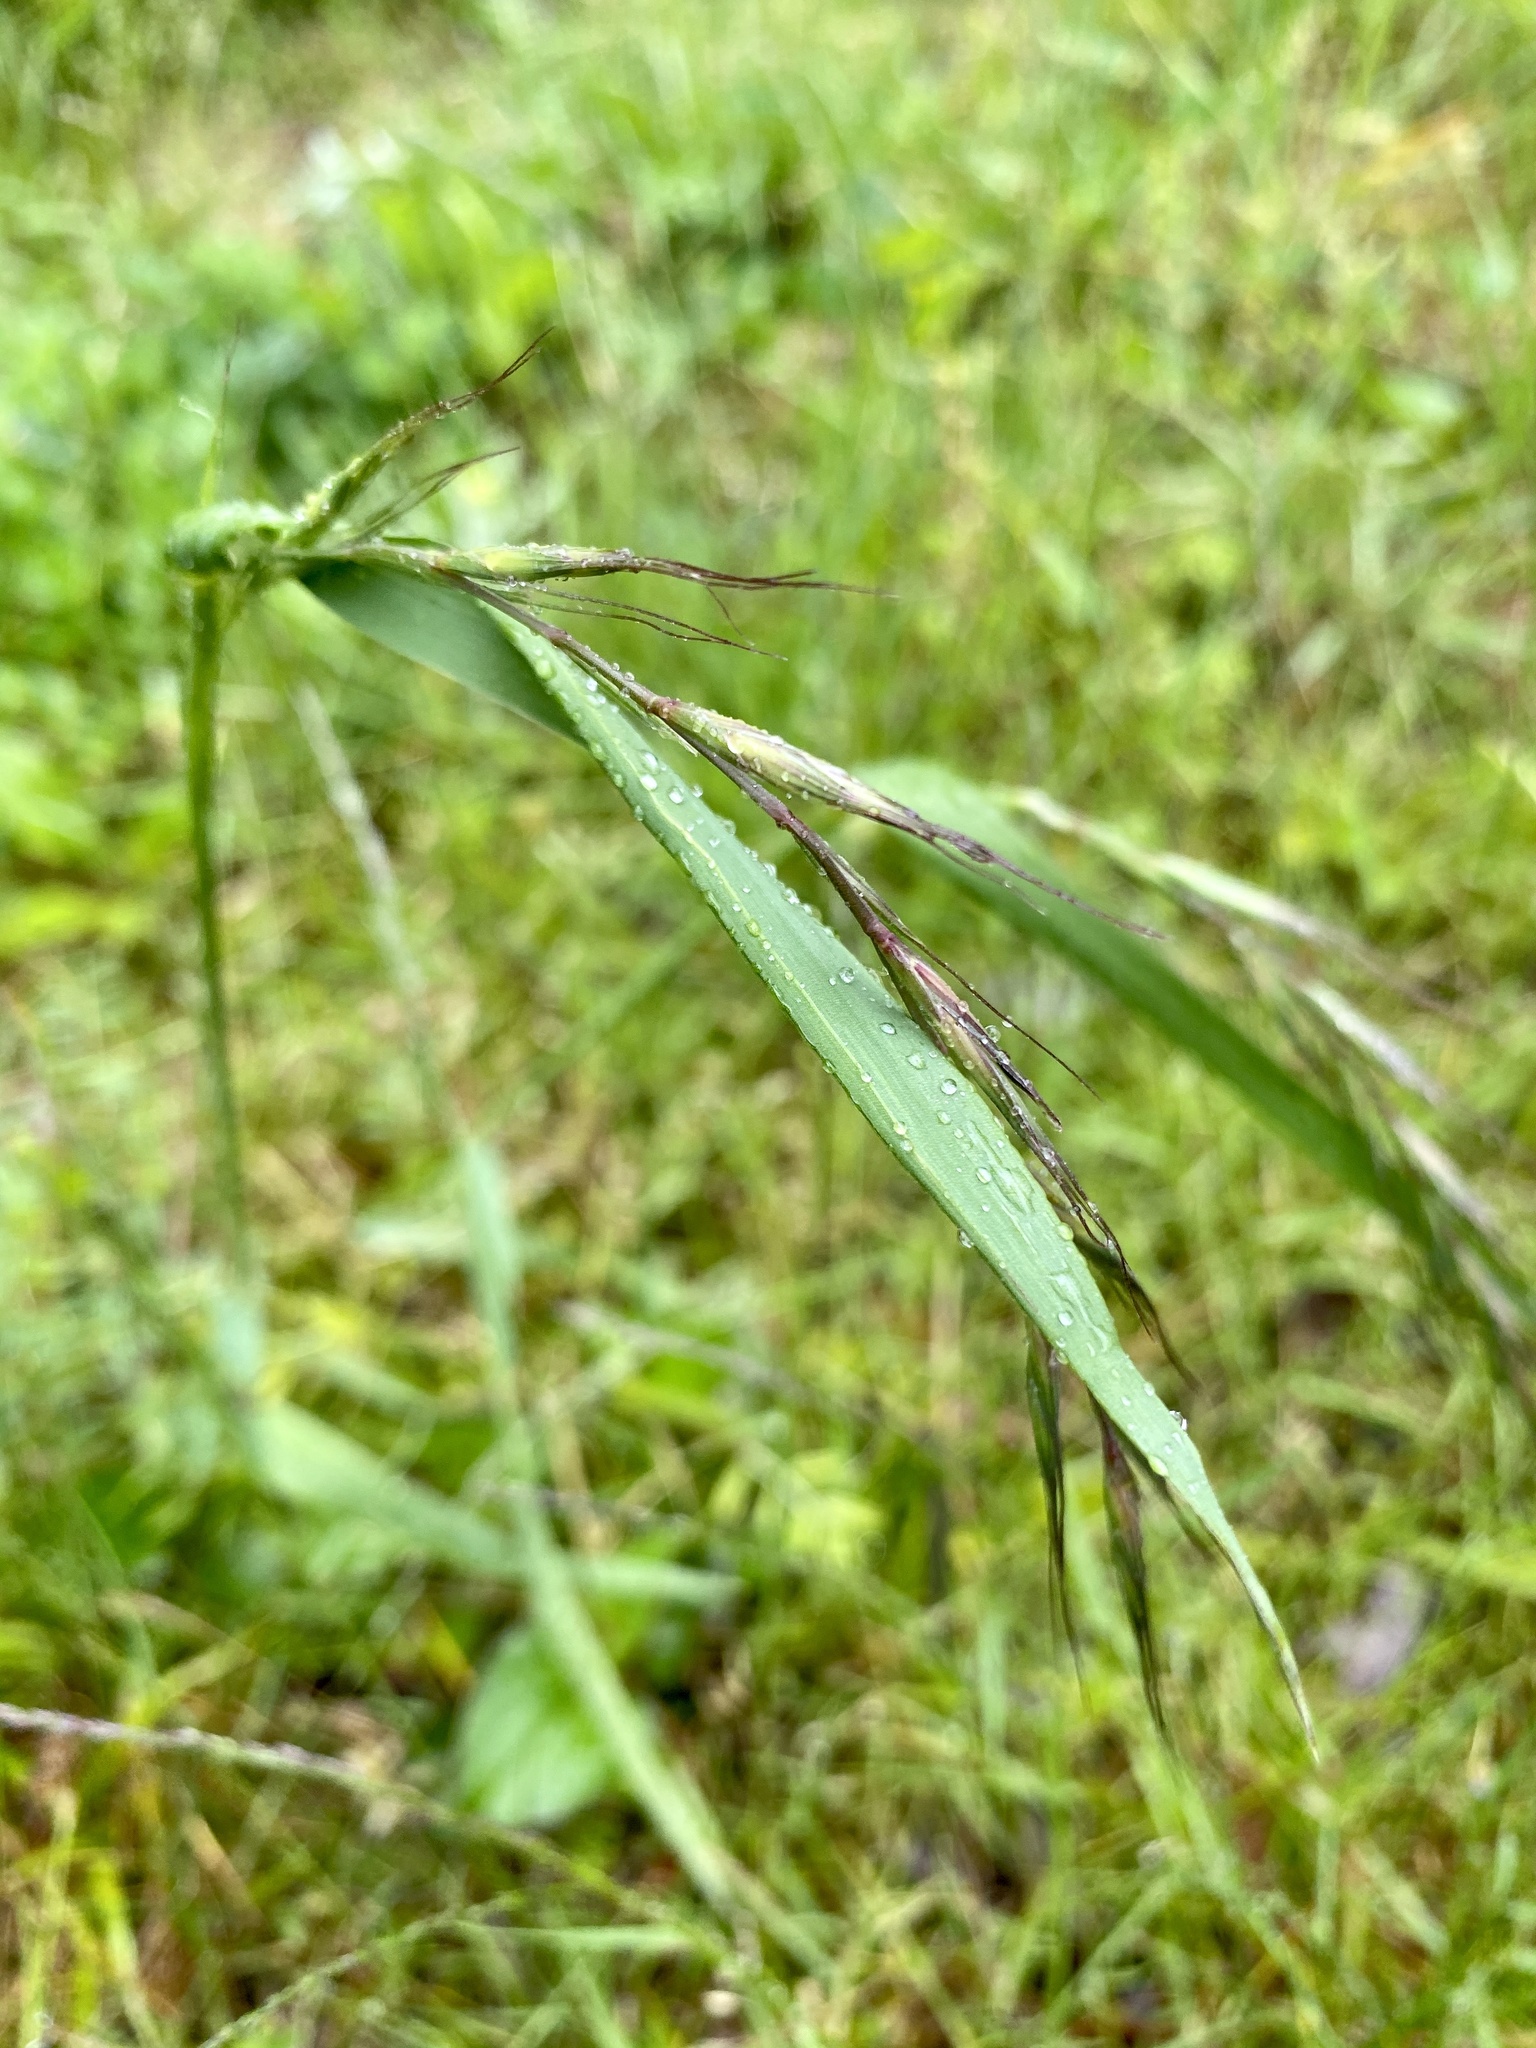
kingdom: Plantae
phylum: Tracheophyta
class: Liliopsida
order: Poales
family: Poaceae
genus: Elymus
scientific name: Elymus tsukushiensis
